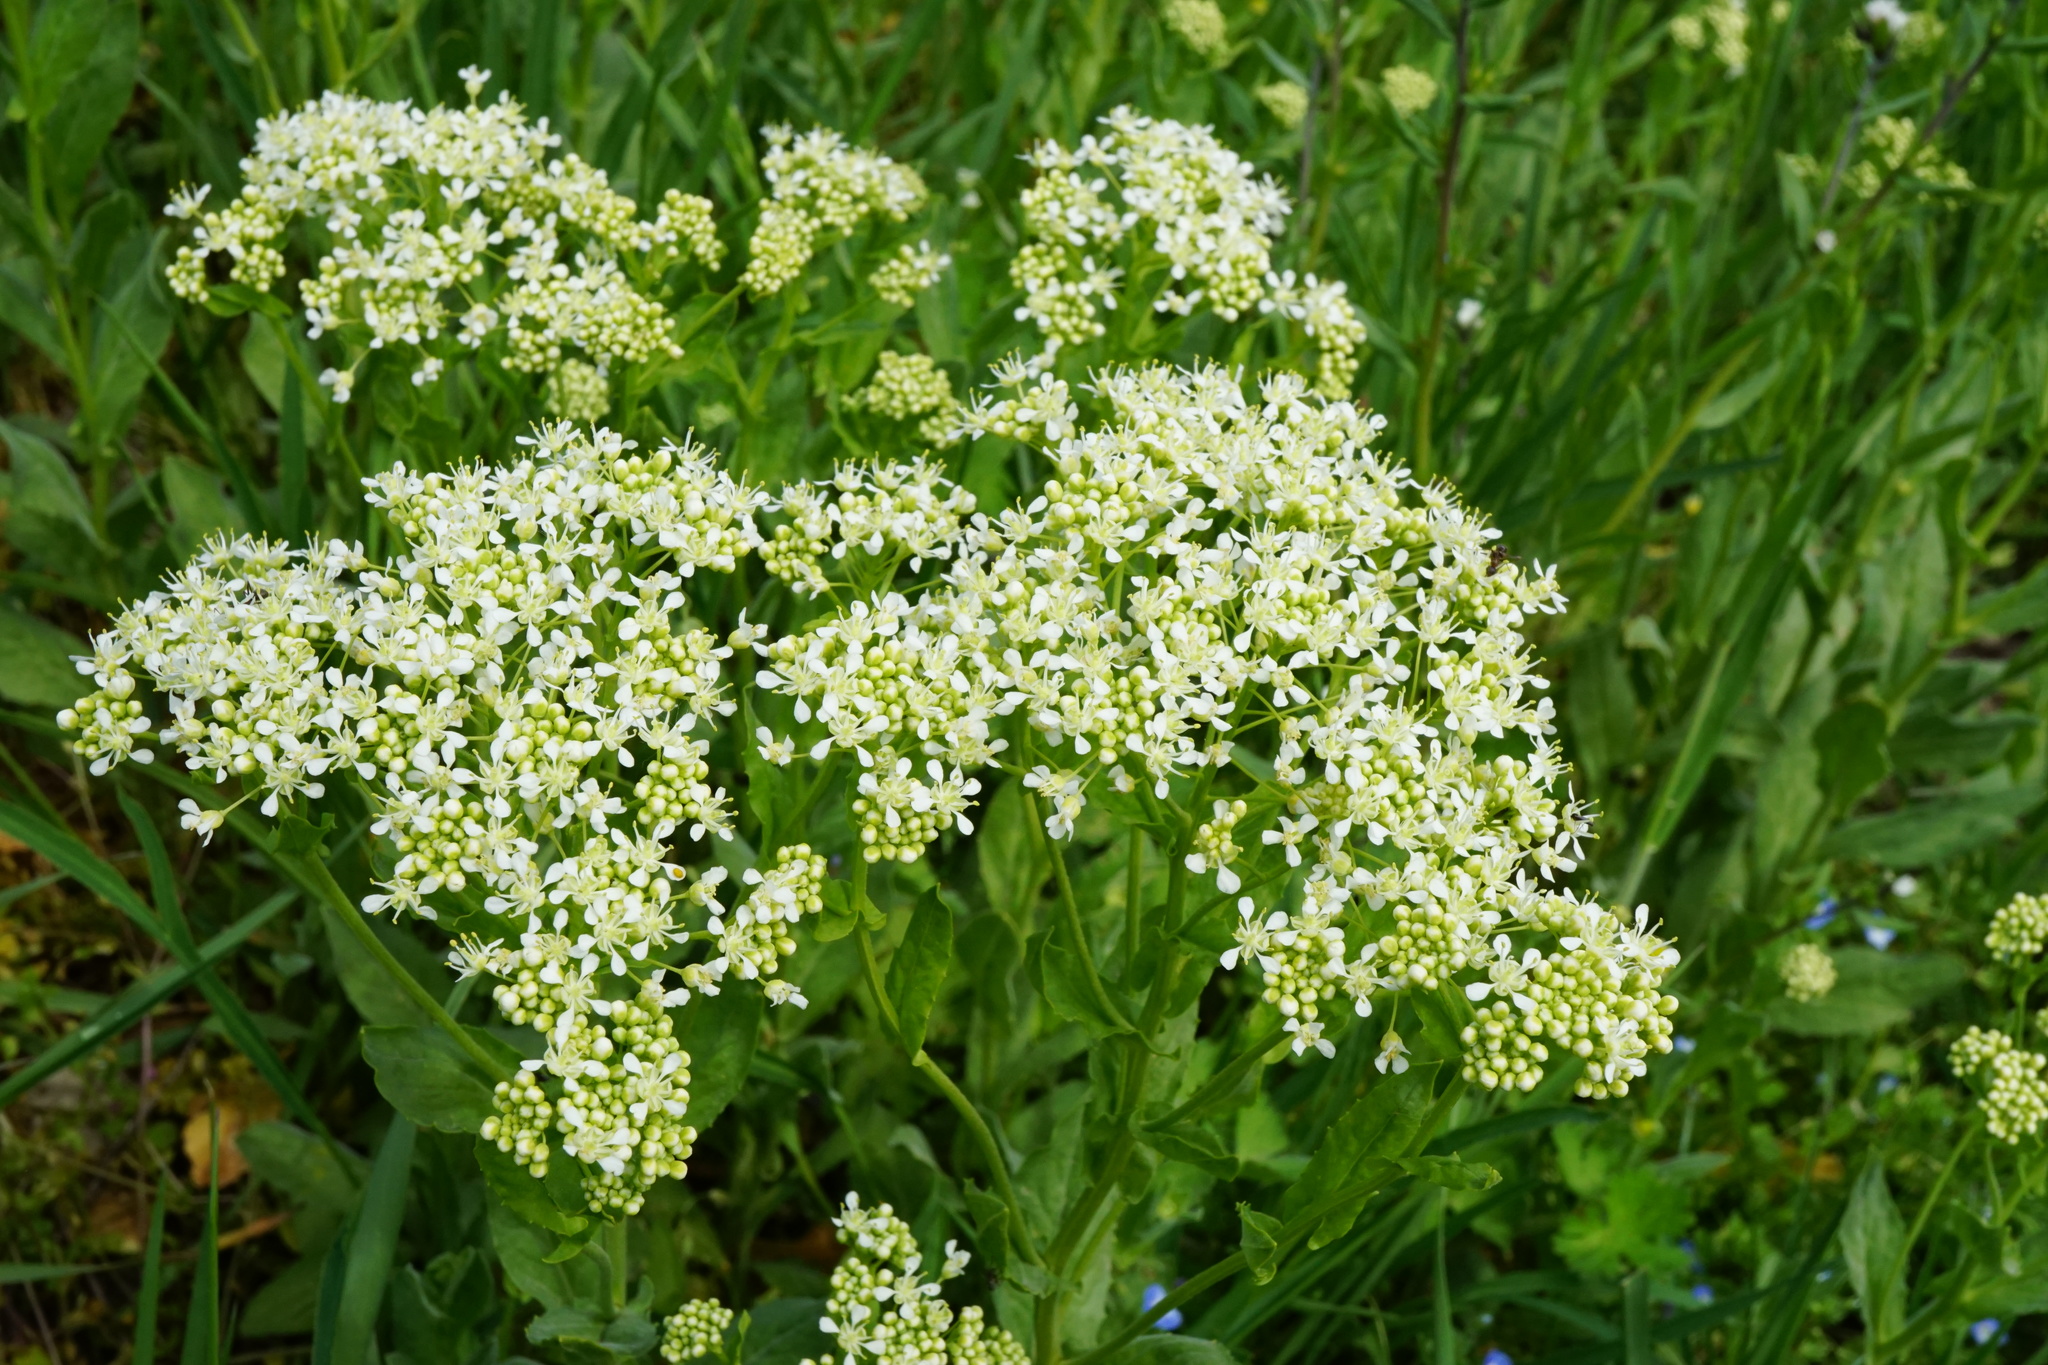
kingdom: Plantae
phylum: Tracheophyta
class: Magnoliopsida
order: Brassicales
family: Brassicaceae
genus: Lepidium
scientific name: Lepidium draba
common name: Hoary cress
